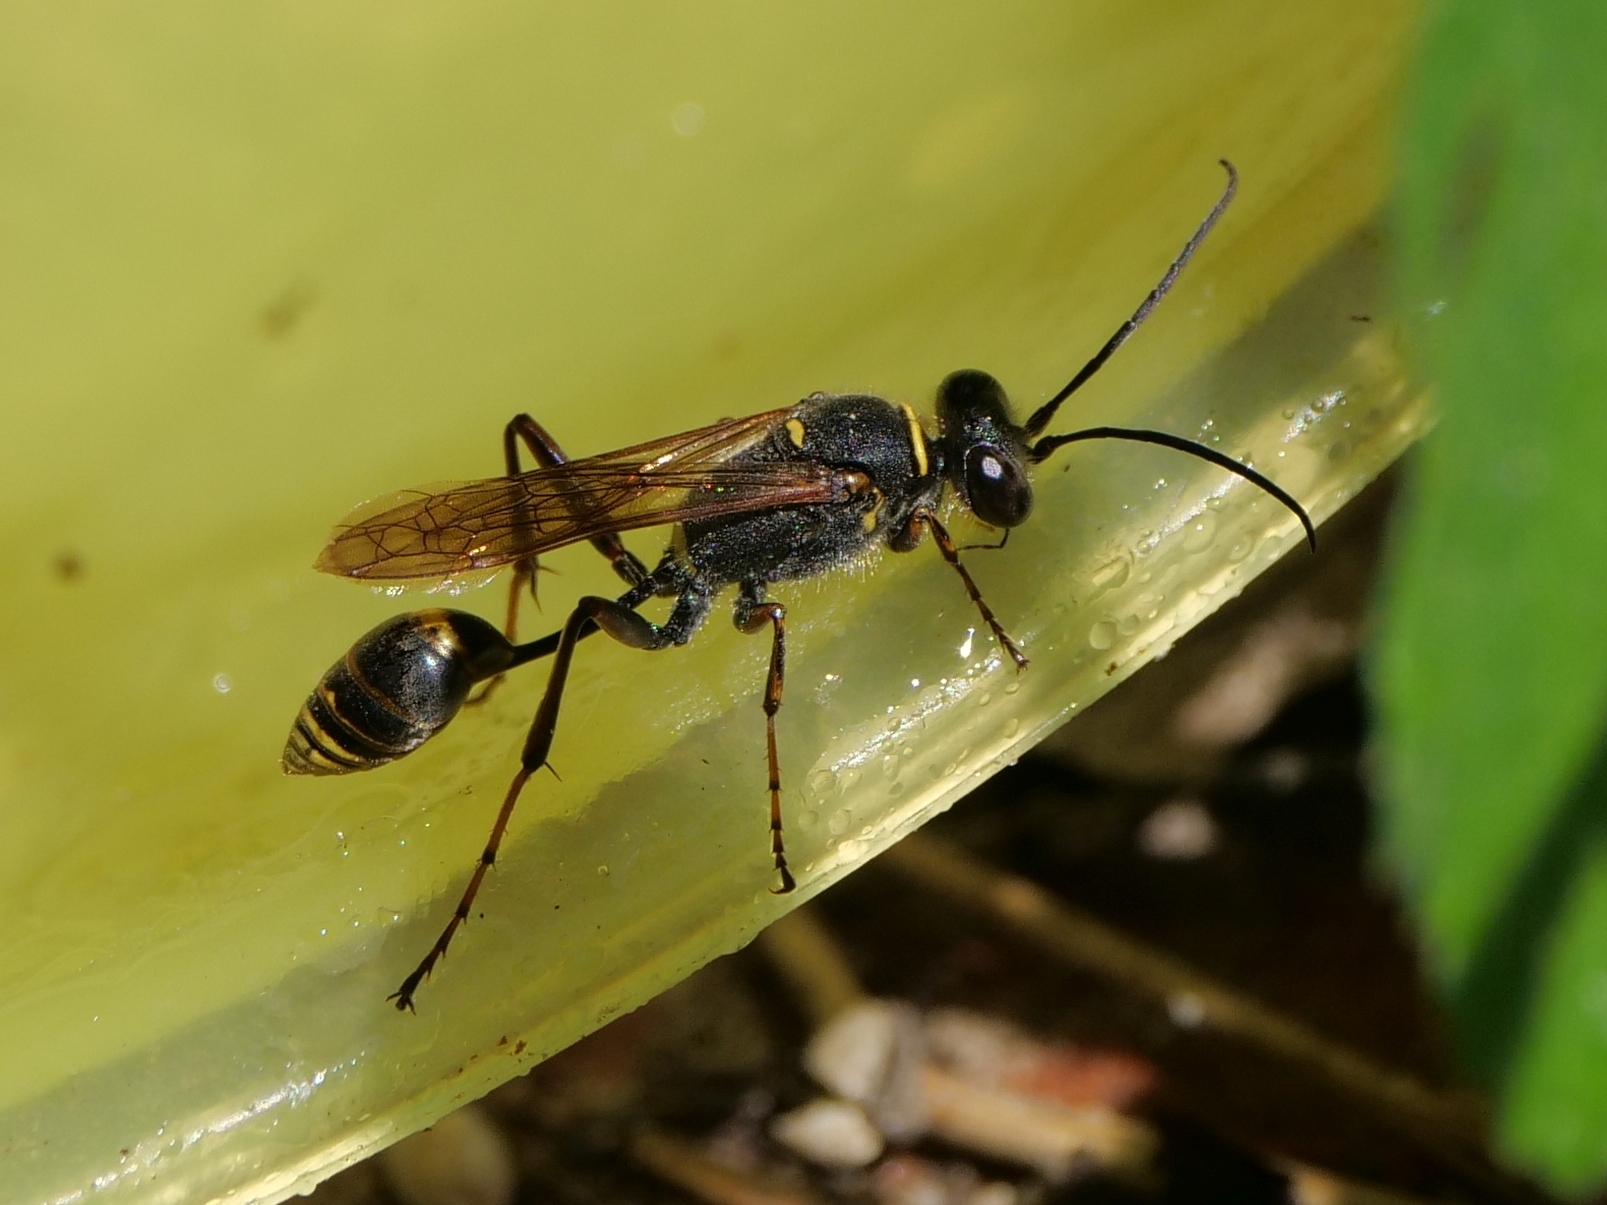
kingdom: Animalia
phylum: Arthropoda
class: Insecta
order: Hymenoptera
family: Sphecidae
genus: Sceliphron
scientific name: Sceliphron curvatum
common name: Pèlopèe
